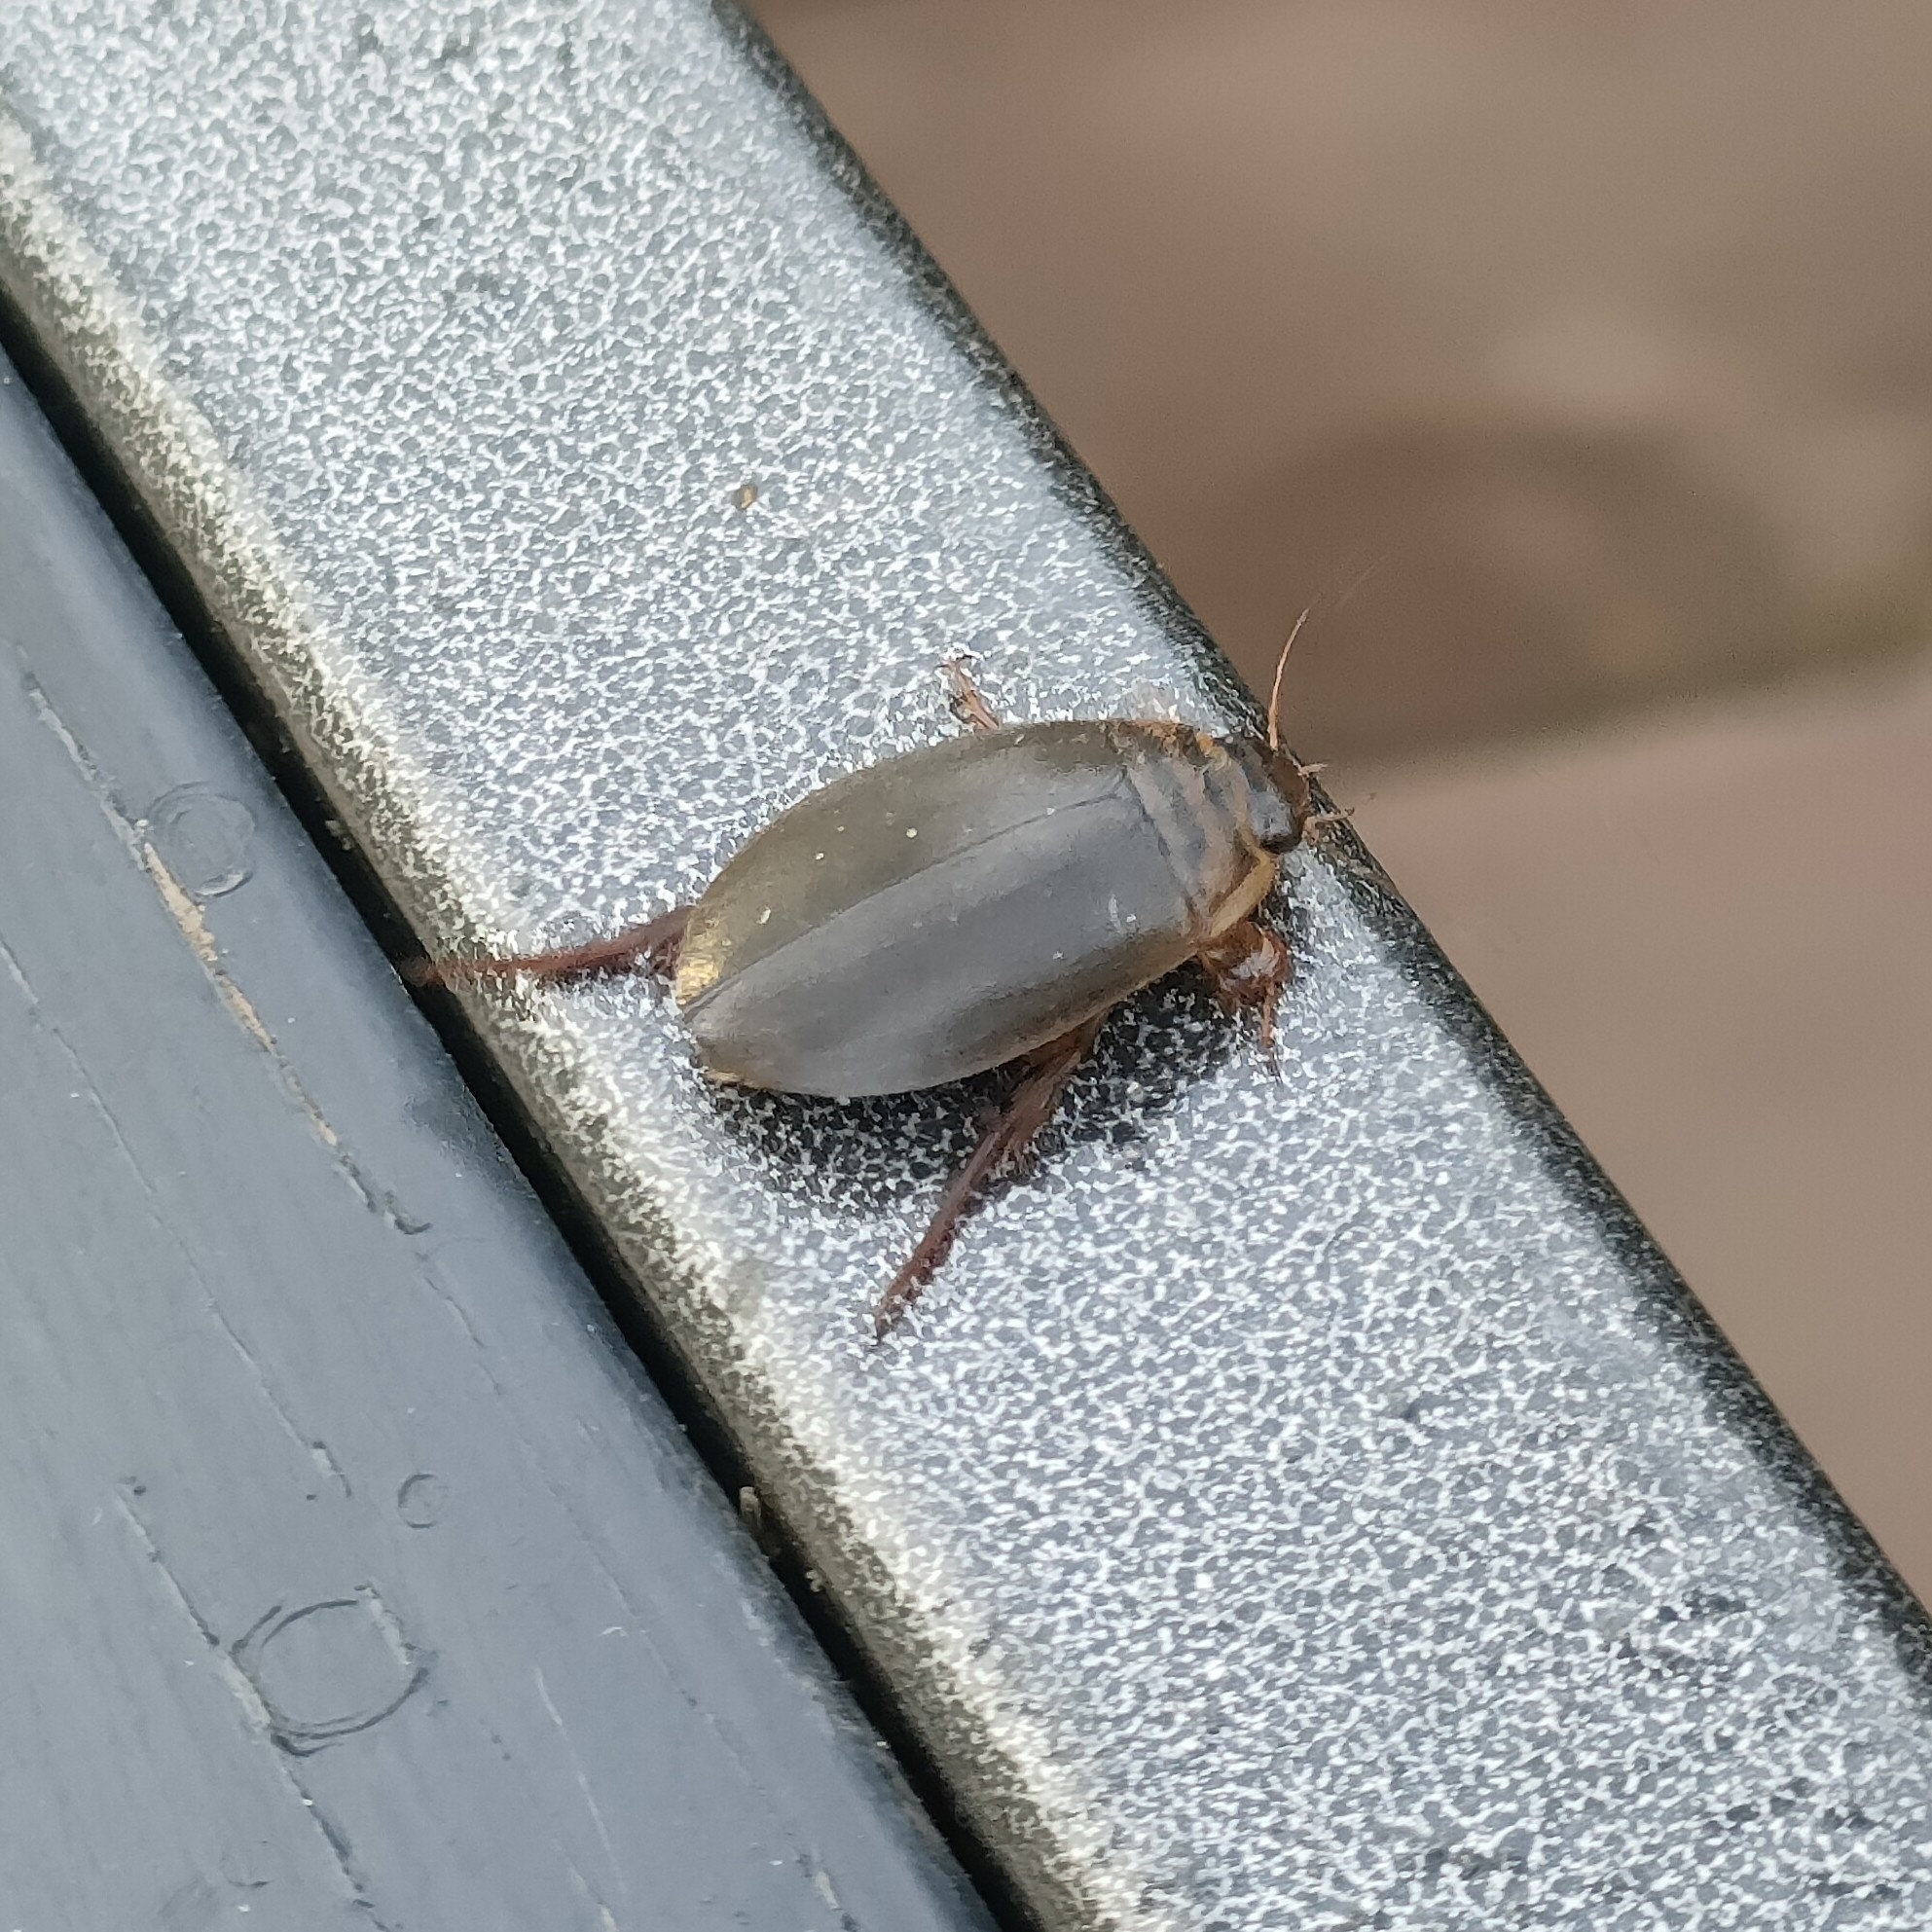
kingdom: Animalia
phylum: Arthropoda
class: Insecta
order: Coleoptera
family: Dytiscidae
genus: Acilius
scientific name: Acilius canaliculatus
